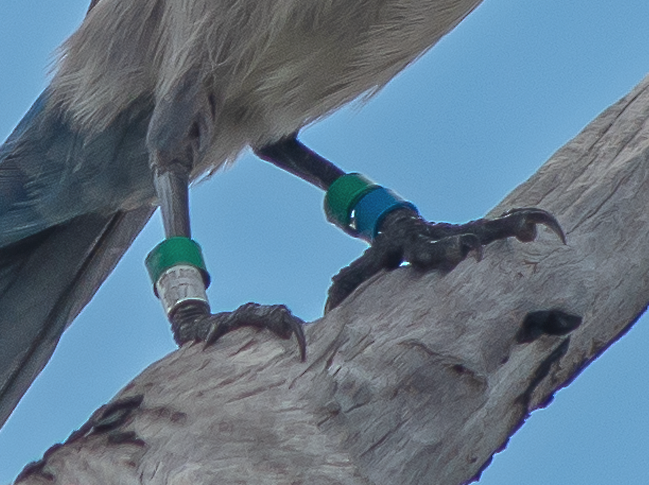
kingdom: Animalia
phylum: Chordata
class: Aves
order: Passeriformes
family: Corvidae
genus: Aphelocoma
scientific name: Aphelocoma coerulescens
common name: Florida scrub jay
